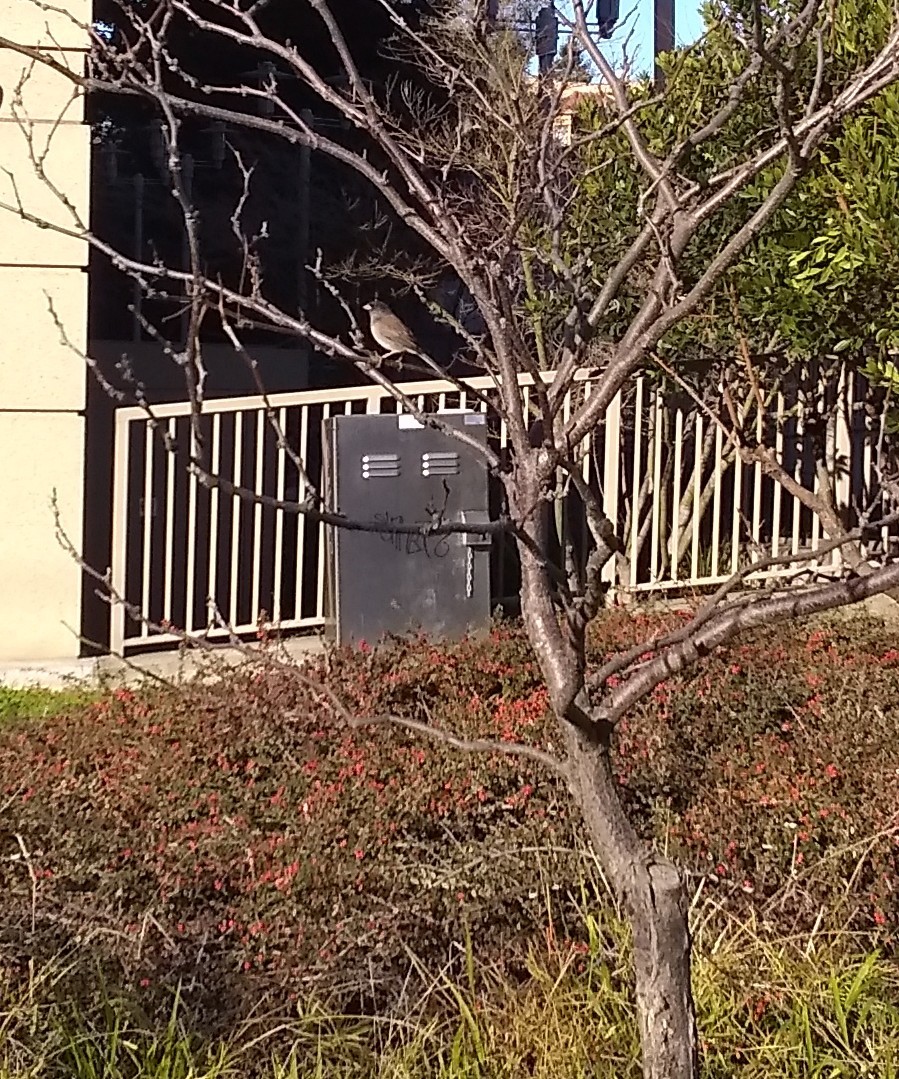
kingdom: Animalia
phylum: Chordata
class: Aves
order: Passeriformes
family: Passerellidae
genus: Junco
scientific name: Junco hyemalis
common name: Dark-eyed junco
